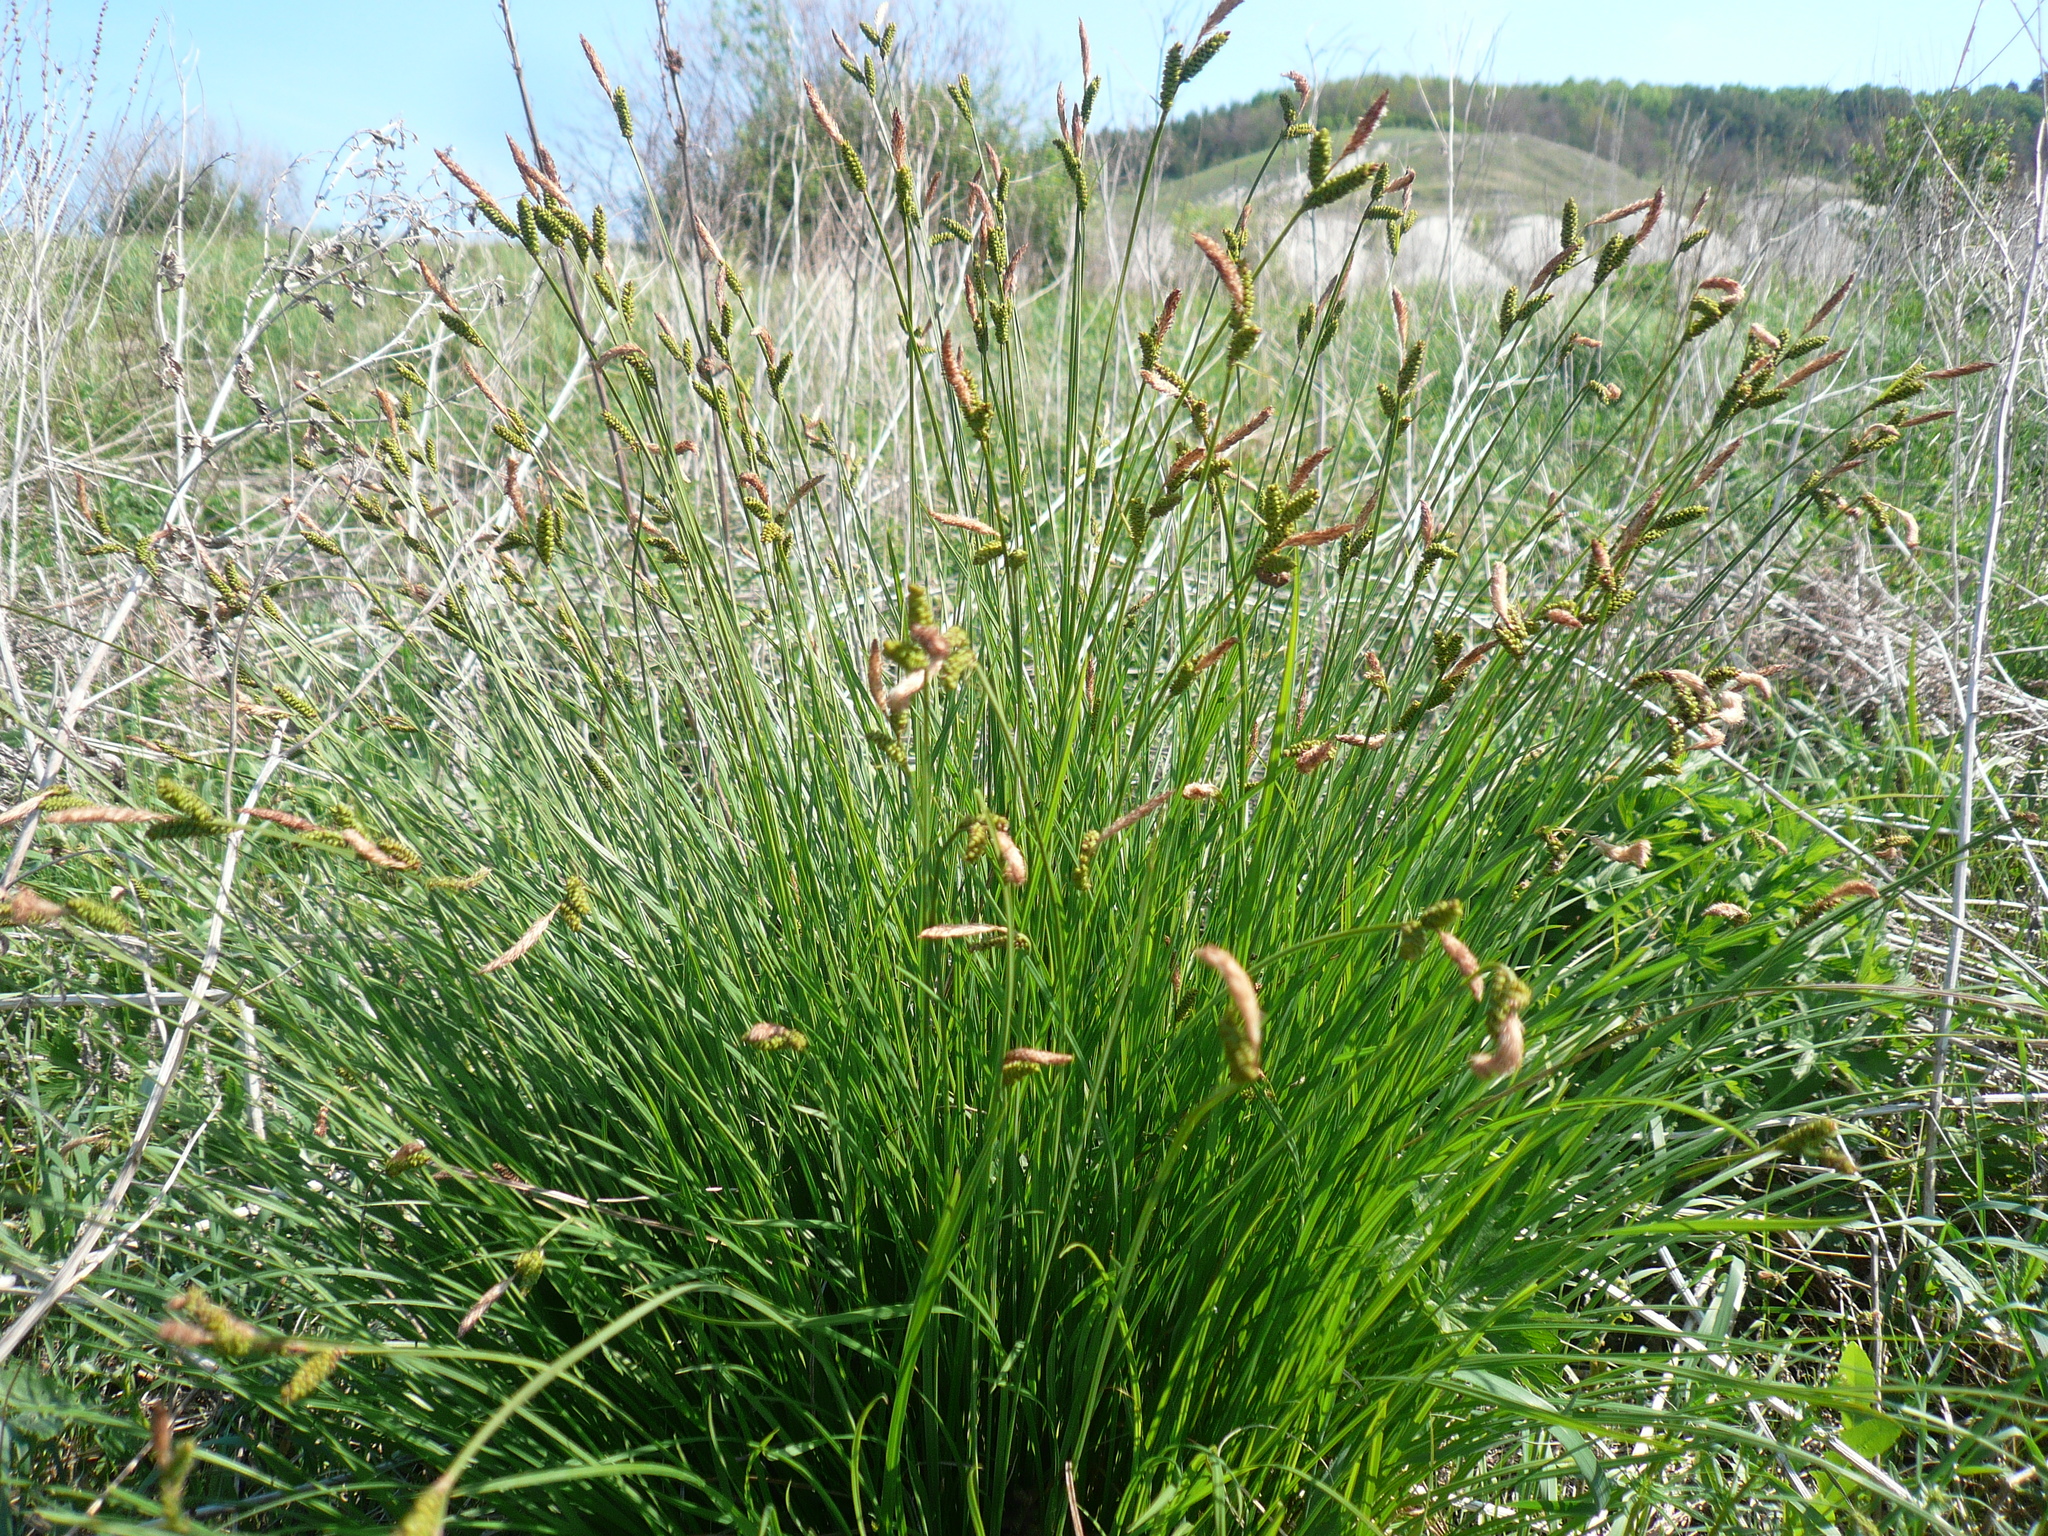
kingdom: Plantae
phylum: Tracheophyta
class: Liliopsida
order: Poales
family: Cyperaceae
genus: Carex
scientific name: Carex cespitosa
